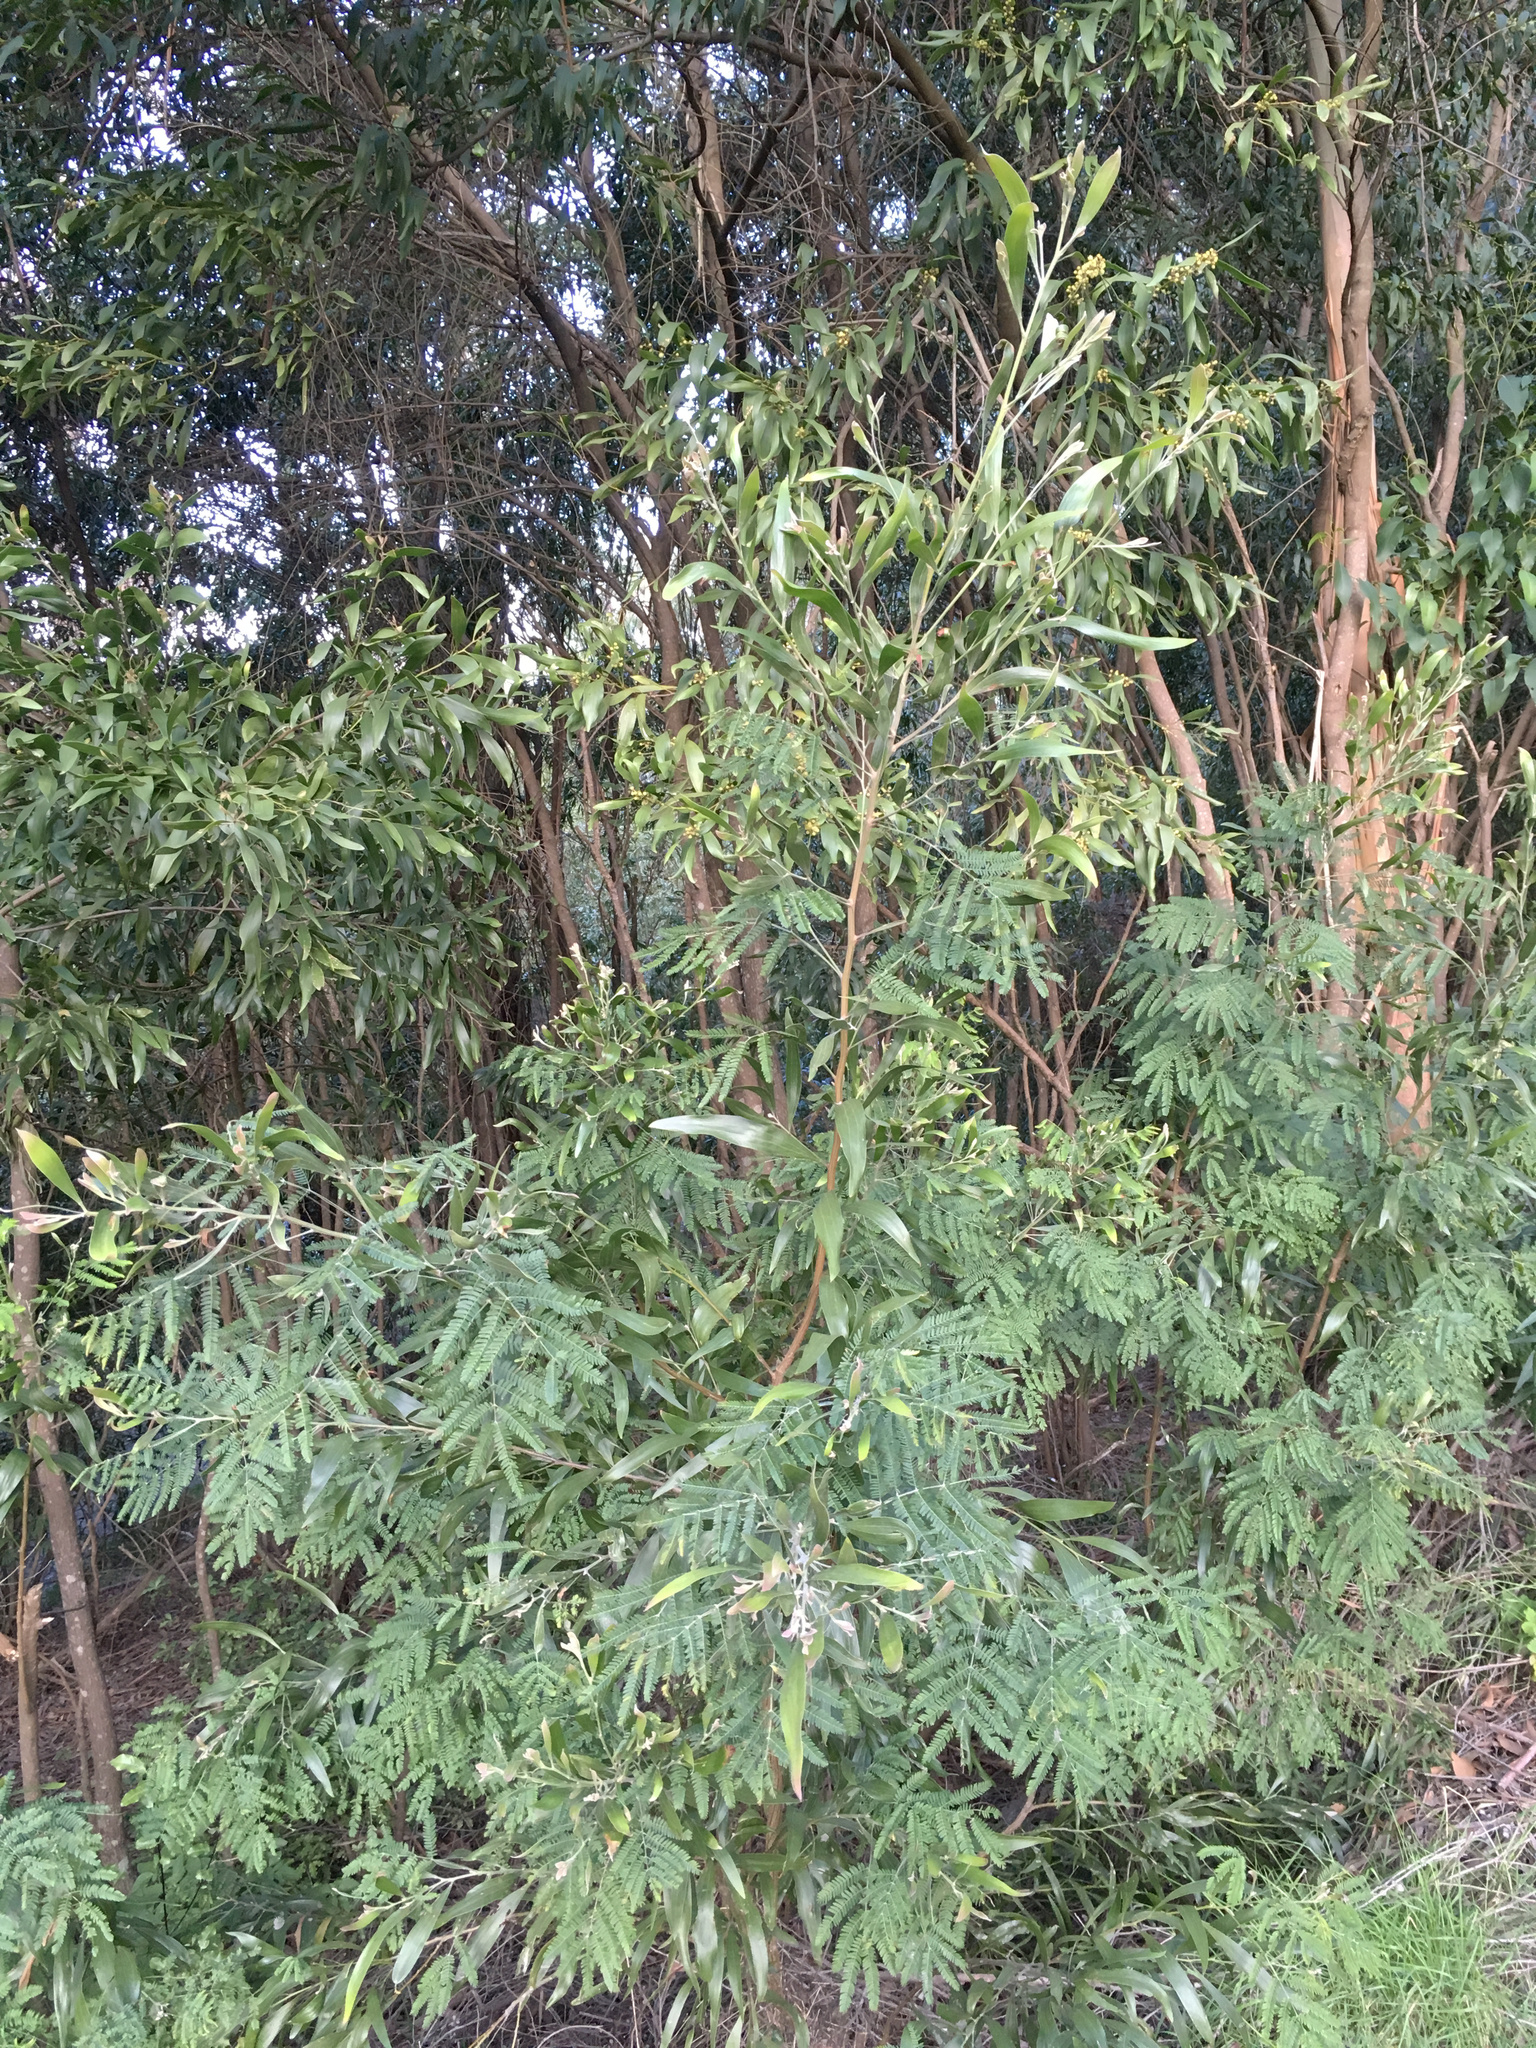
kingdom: Plantae
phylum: Tracheophyta
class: Magnoliopsida
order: Fabales
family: Fabaceae
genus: Acacia
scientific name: Acacia melanoxylon
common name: Blackwood
